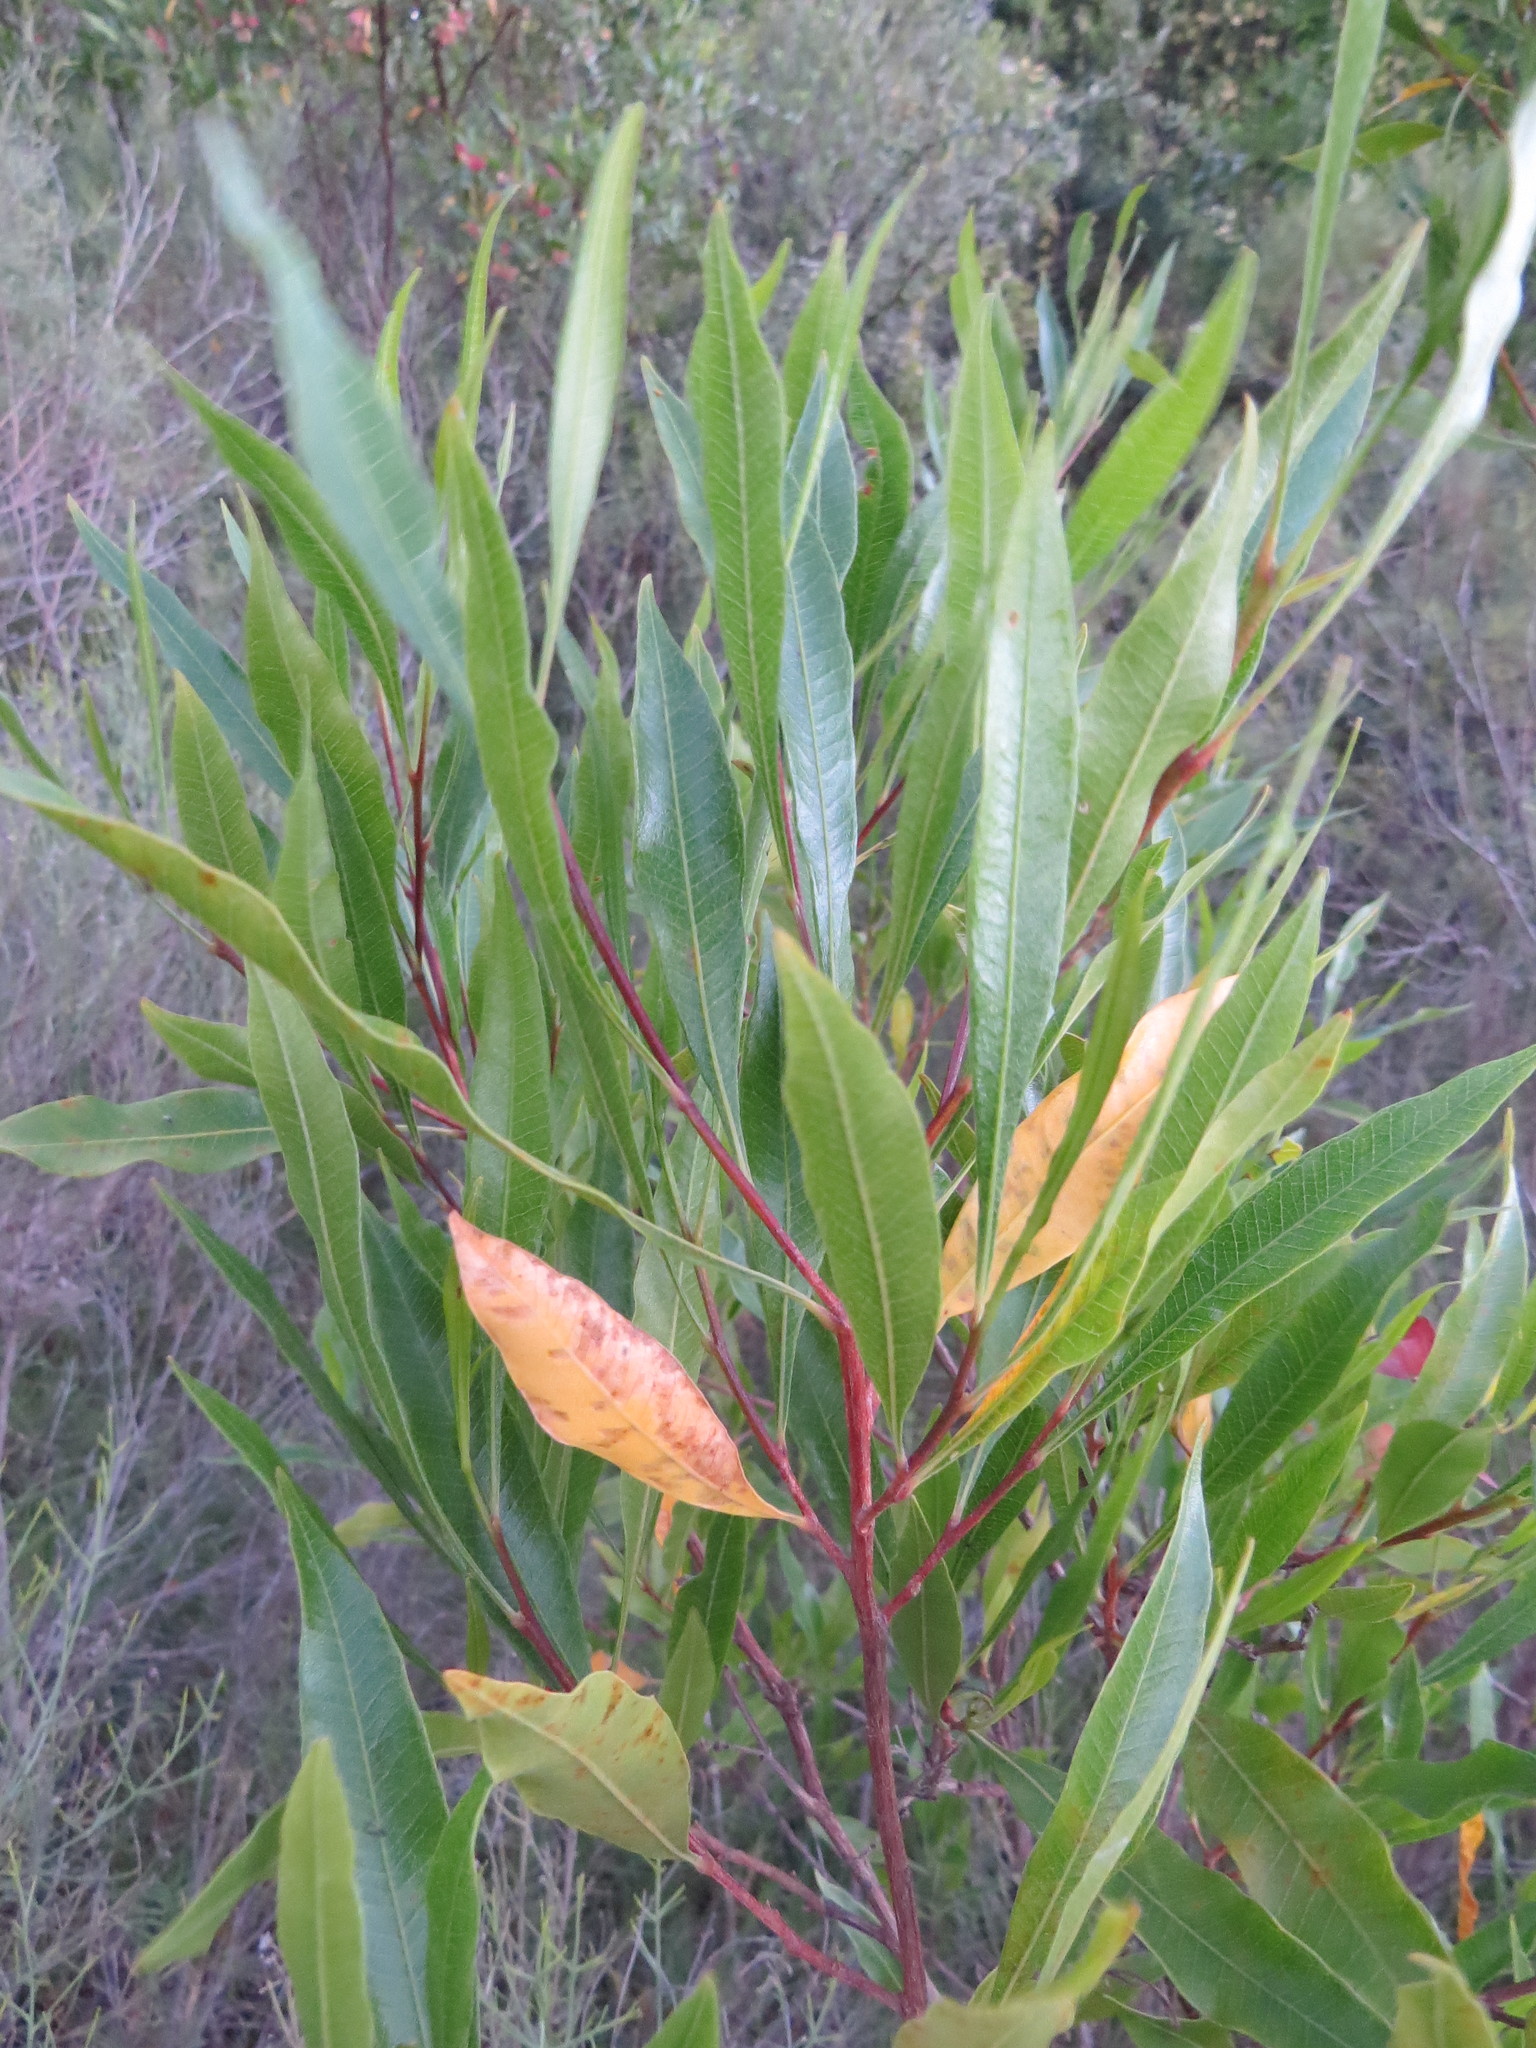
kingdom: Plantae
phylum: Tracheophyta
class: Magnoliopsida
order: Sapindales
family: Sapindaceae
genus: Dodonaea
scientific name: Dodonaea viscosa
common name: Hopbush
